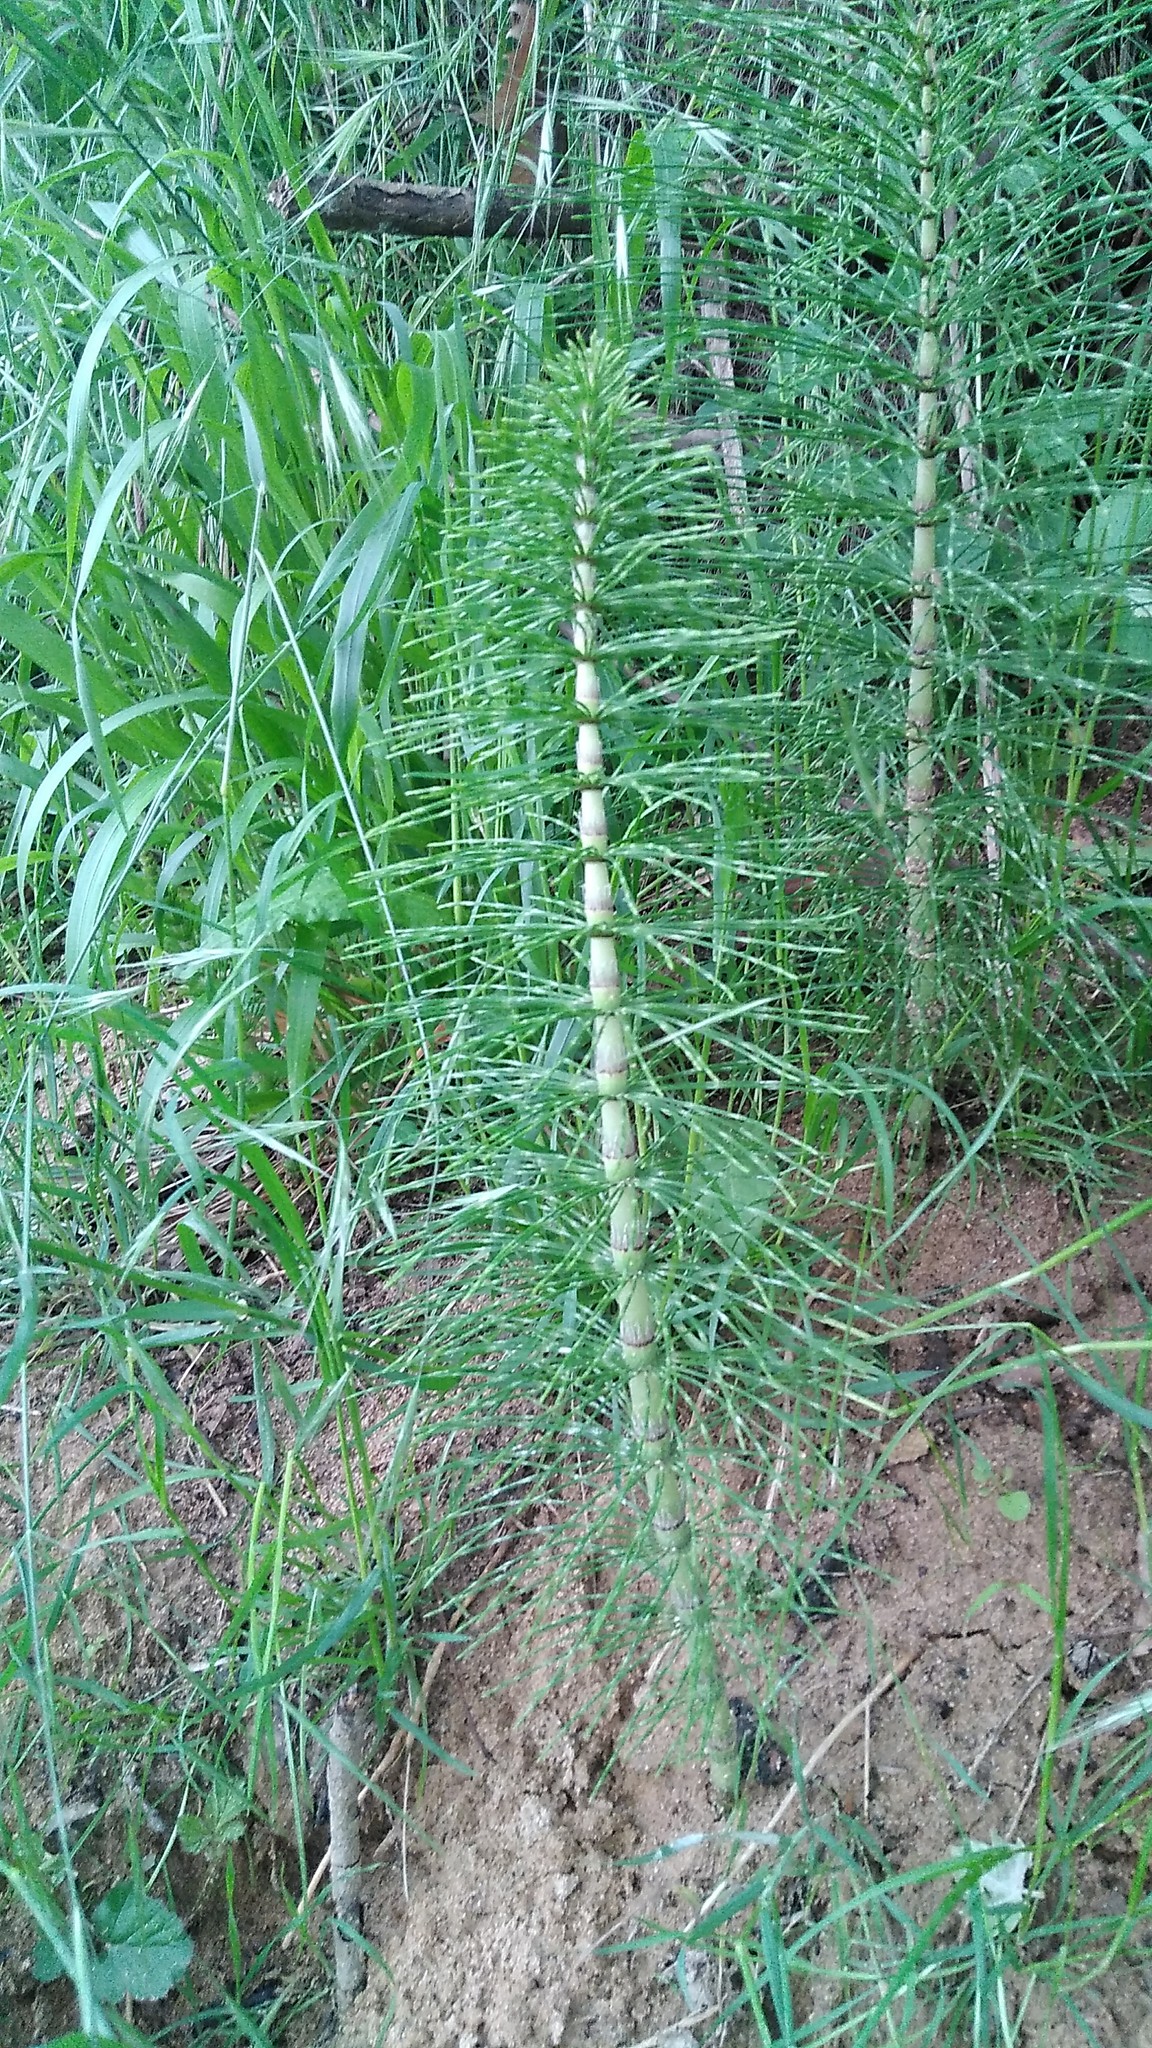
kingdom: Plantae
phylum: Tracheophyta
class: Polypodiopsida
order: Equisetales
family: Equisetaceae
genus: Equisetum
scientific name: Equisetum telmateia
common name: Great horsetail
